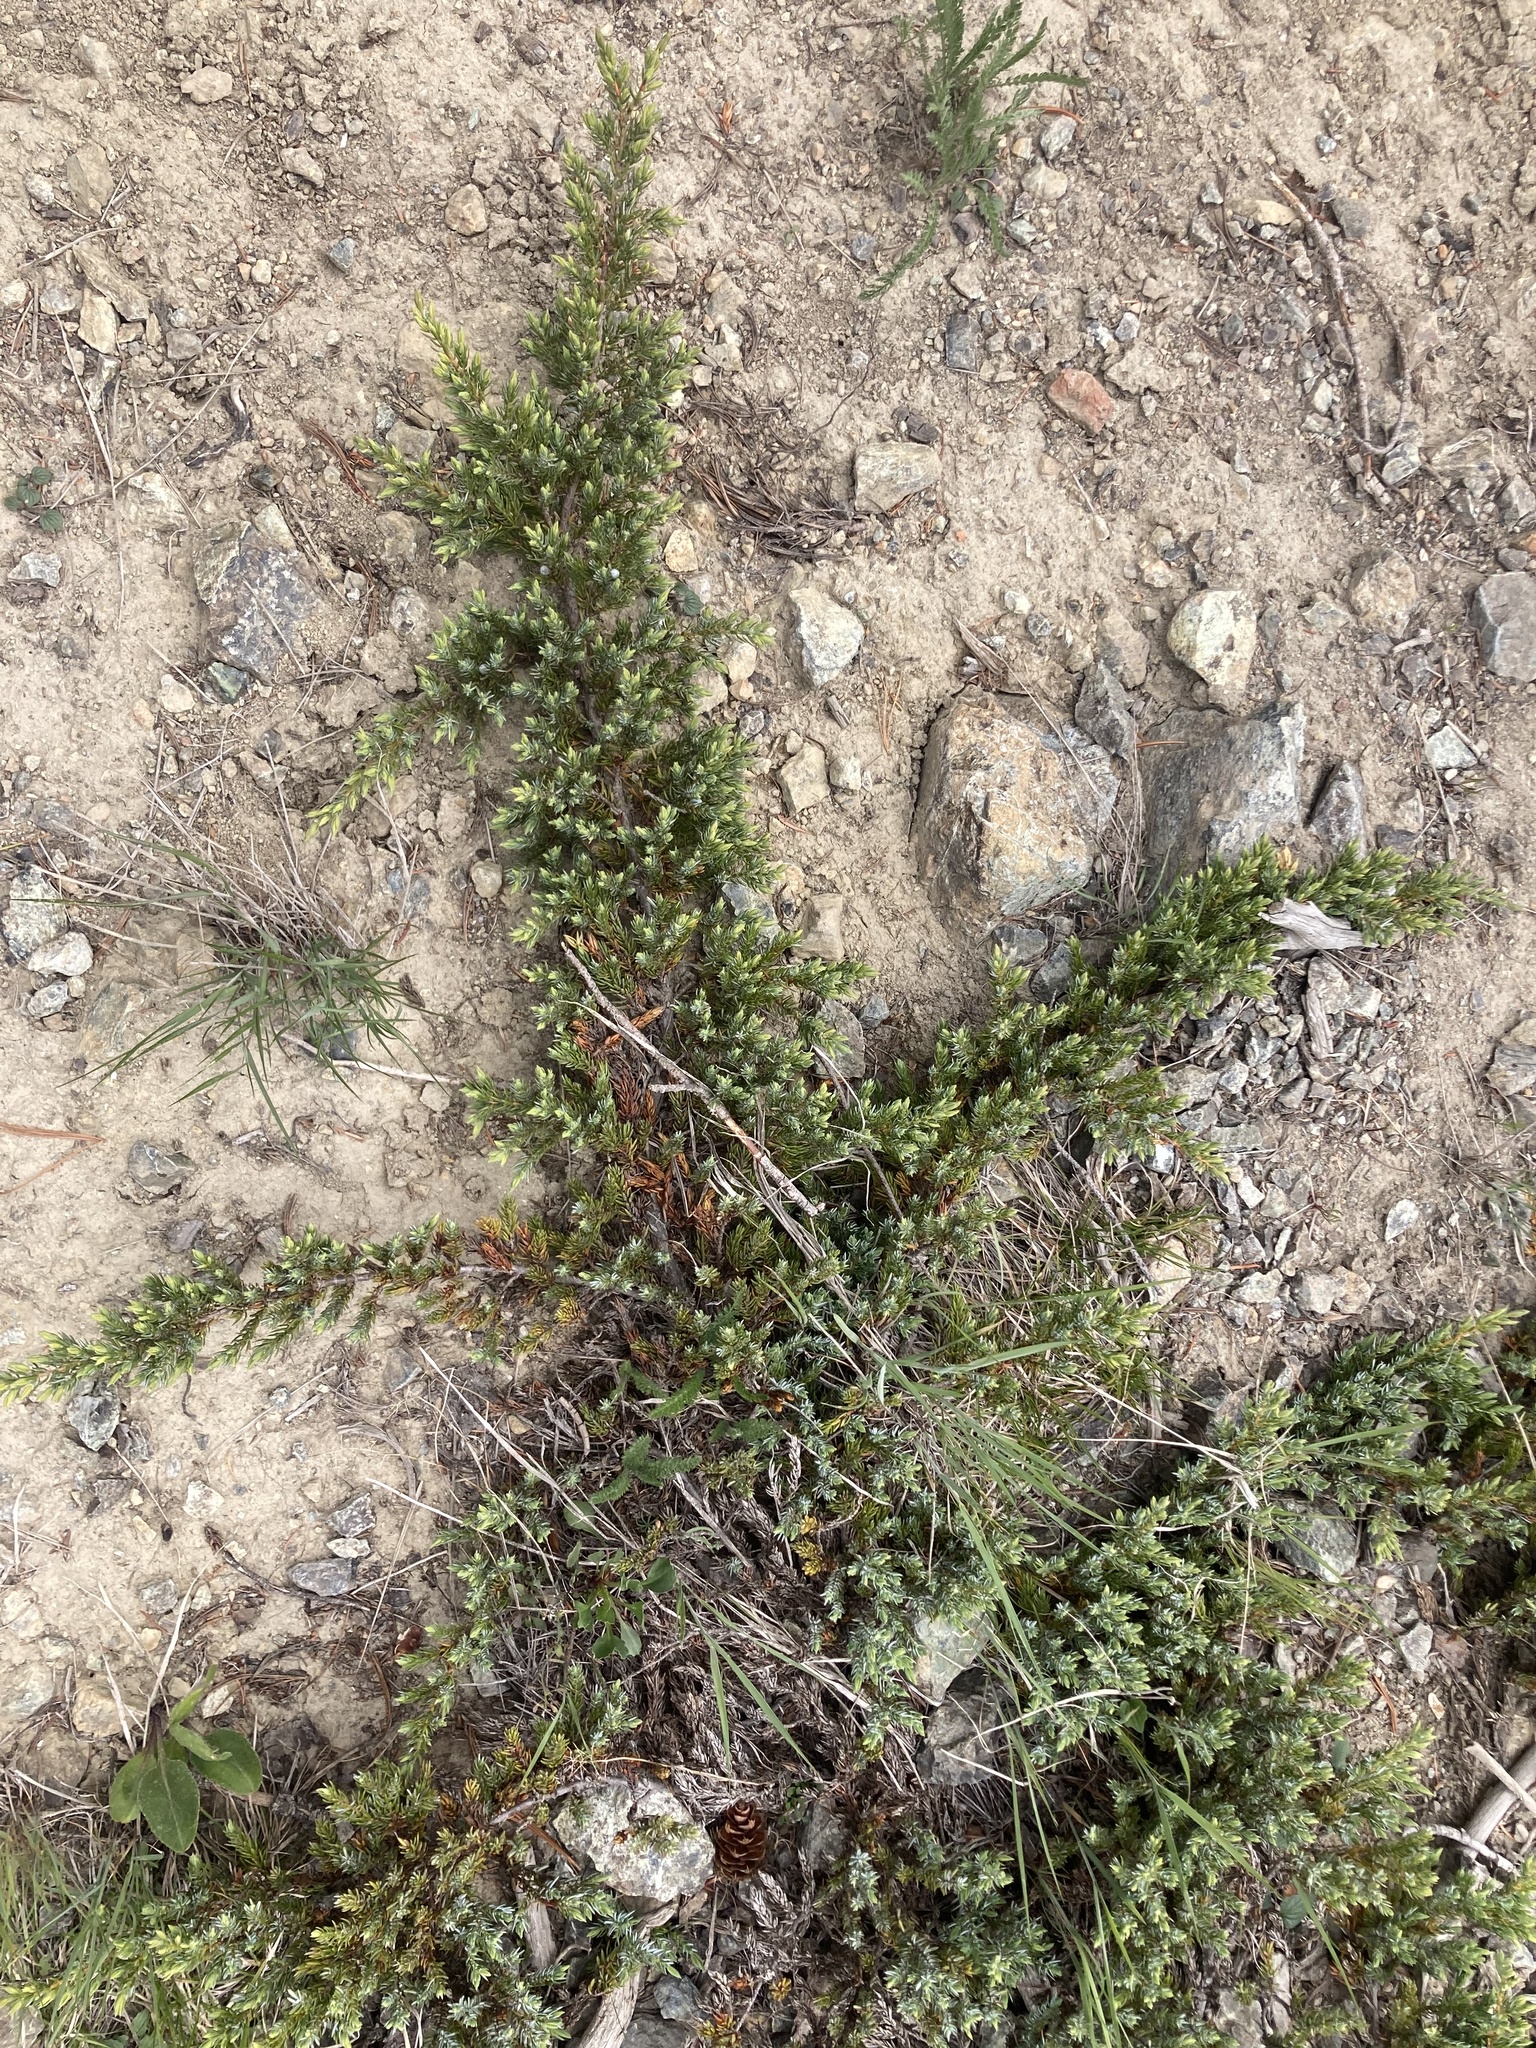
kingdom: Plantae
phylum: Tracheophyta
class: Pinopsida
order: Pinales
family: Cupressaceae
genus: Juniperus
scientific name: Juniperus communis
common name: Common juniper
